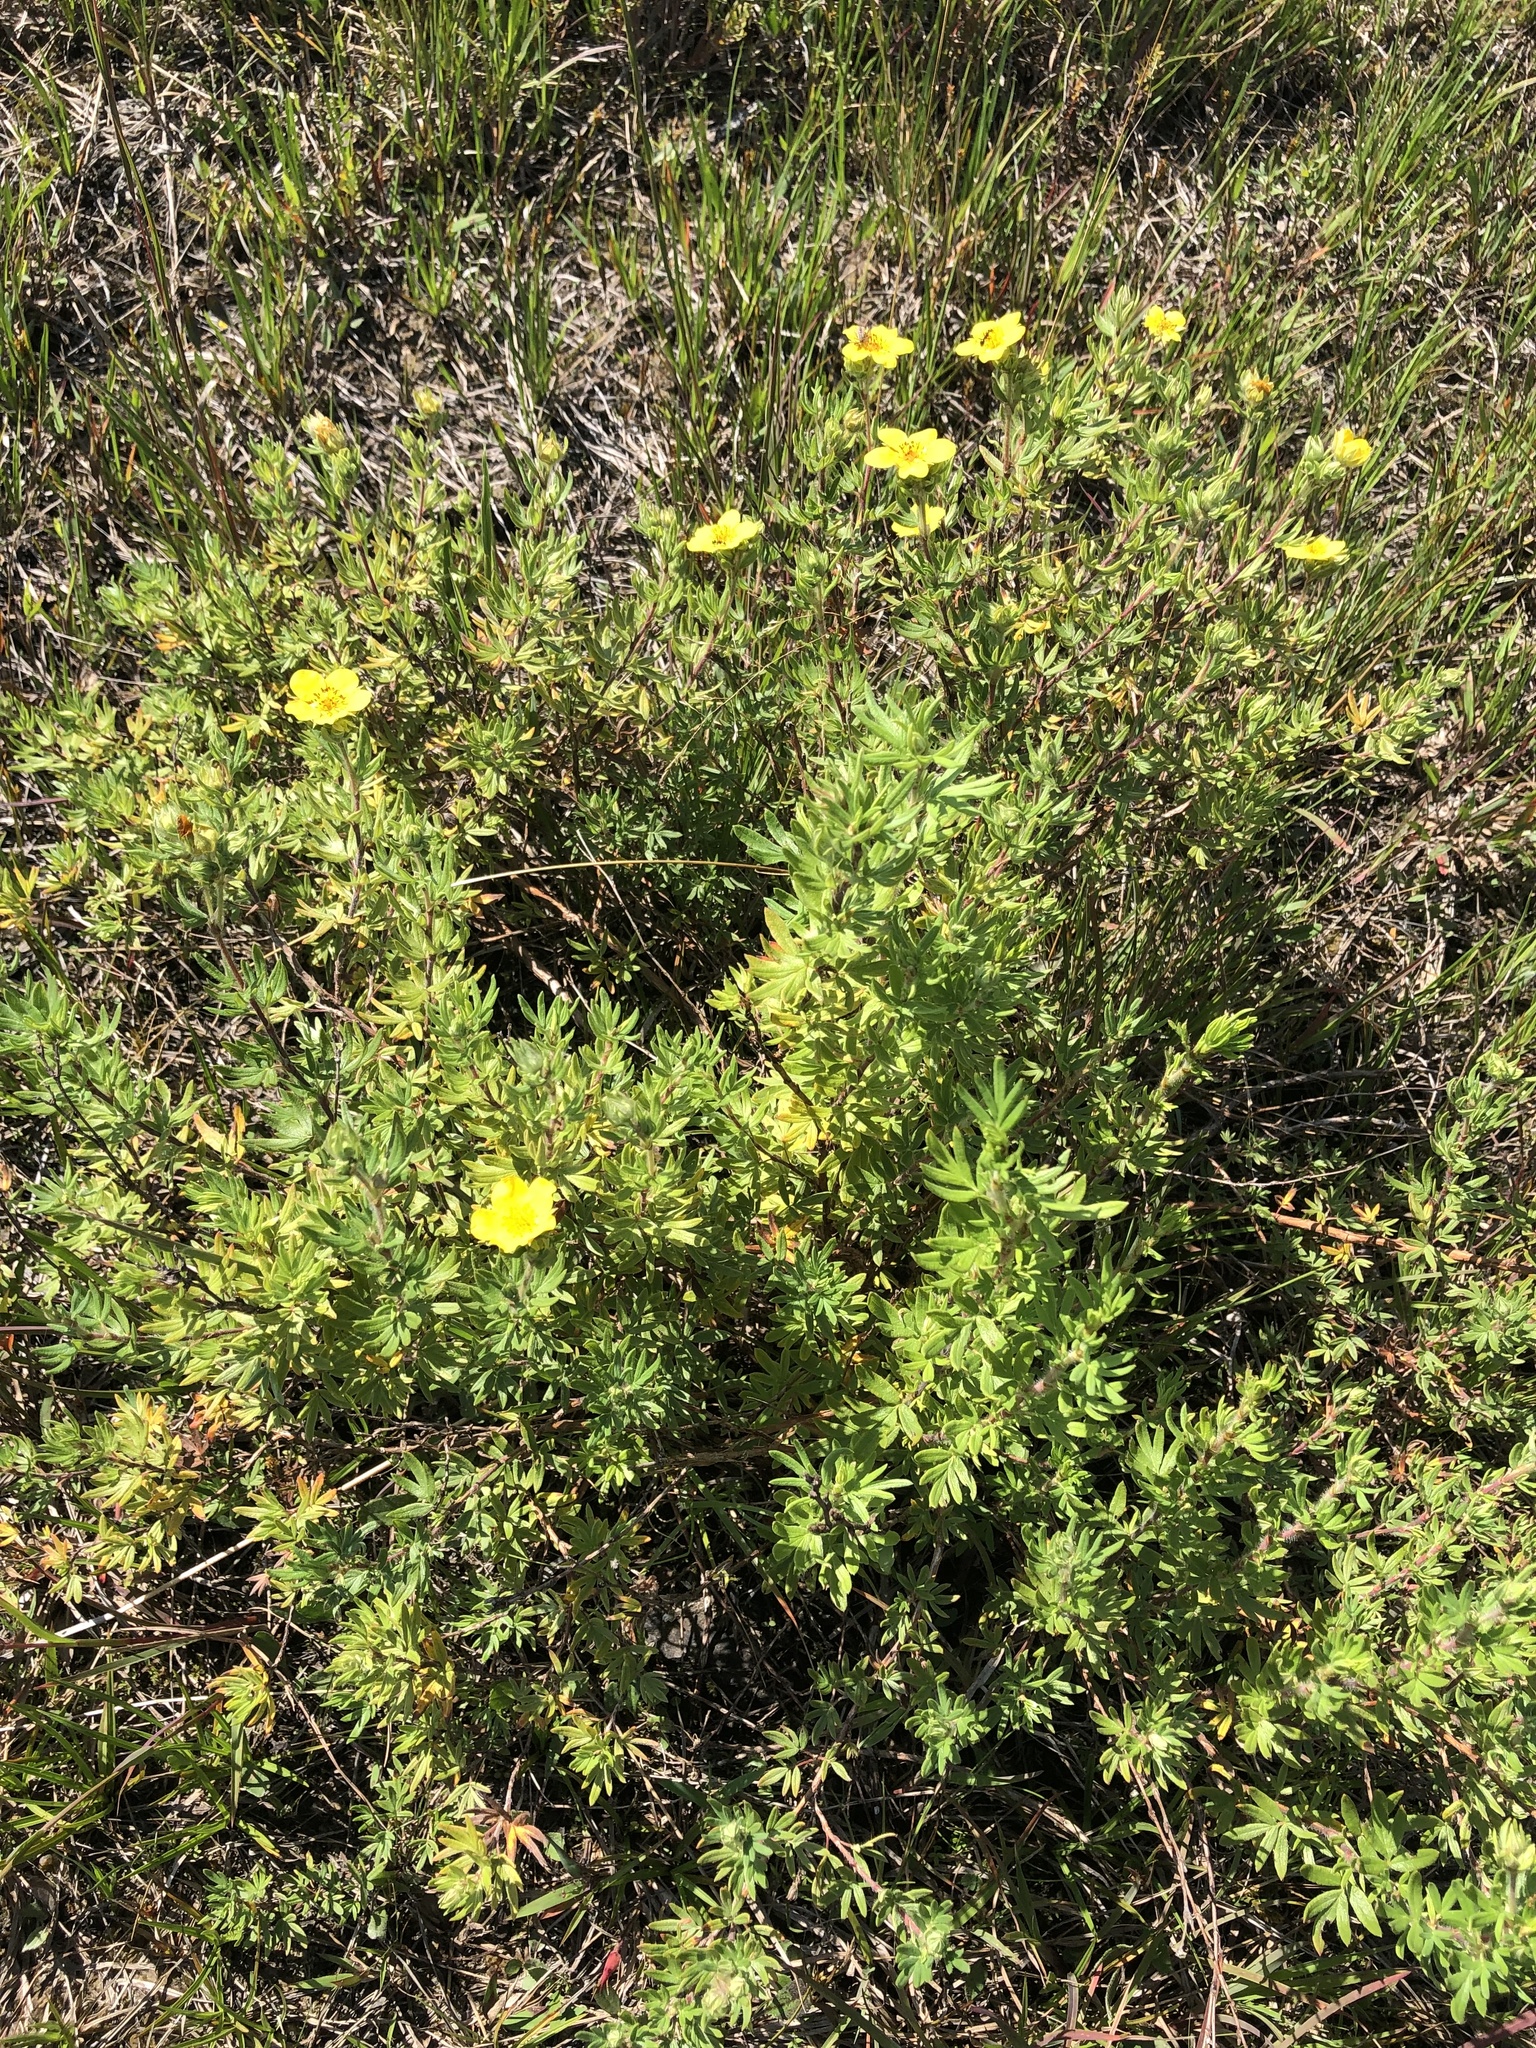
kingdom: Plantae
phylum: Tracheophyta
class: Magnoliopsida
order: Rosales
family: Rosaceae
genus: Dasiphora
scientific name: Dasiphora fruticosa
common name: Shrubby cinquefoil
